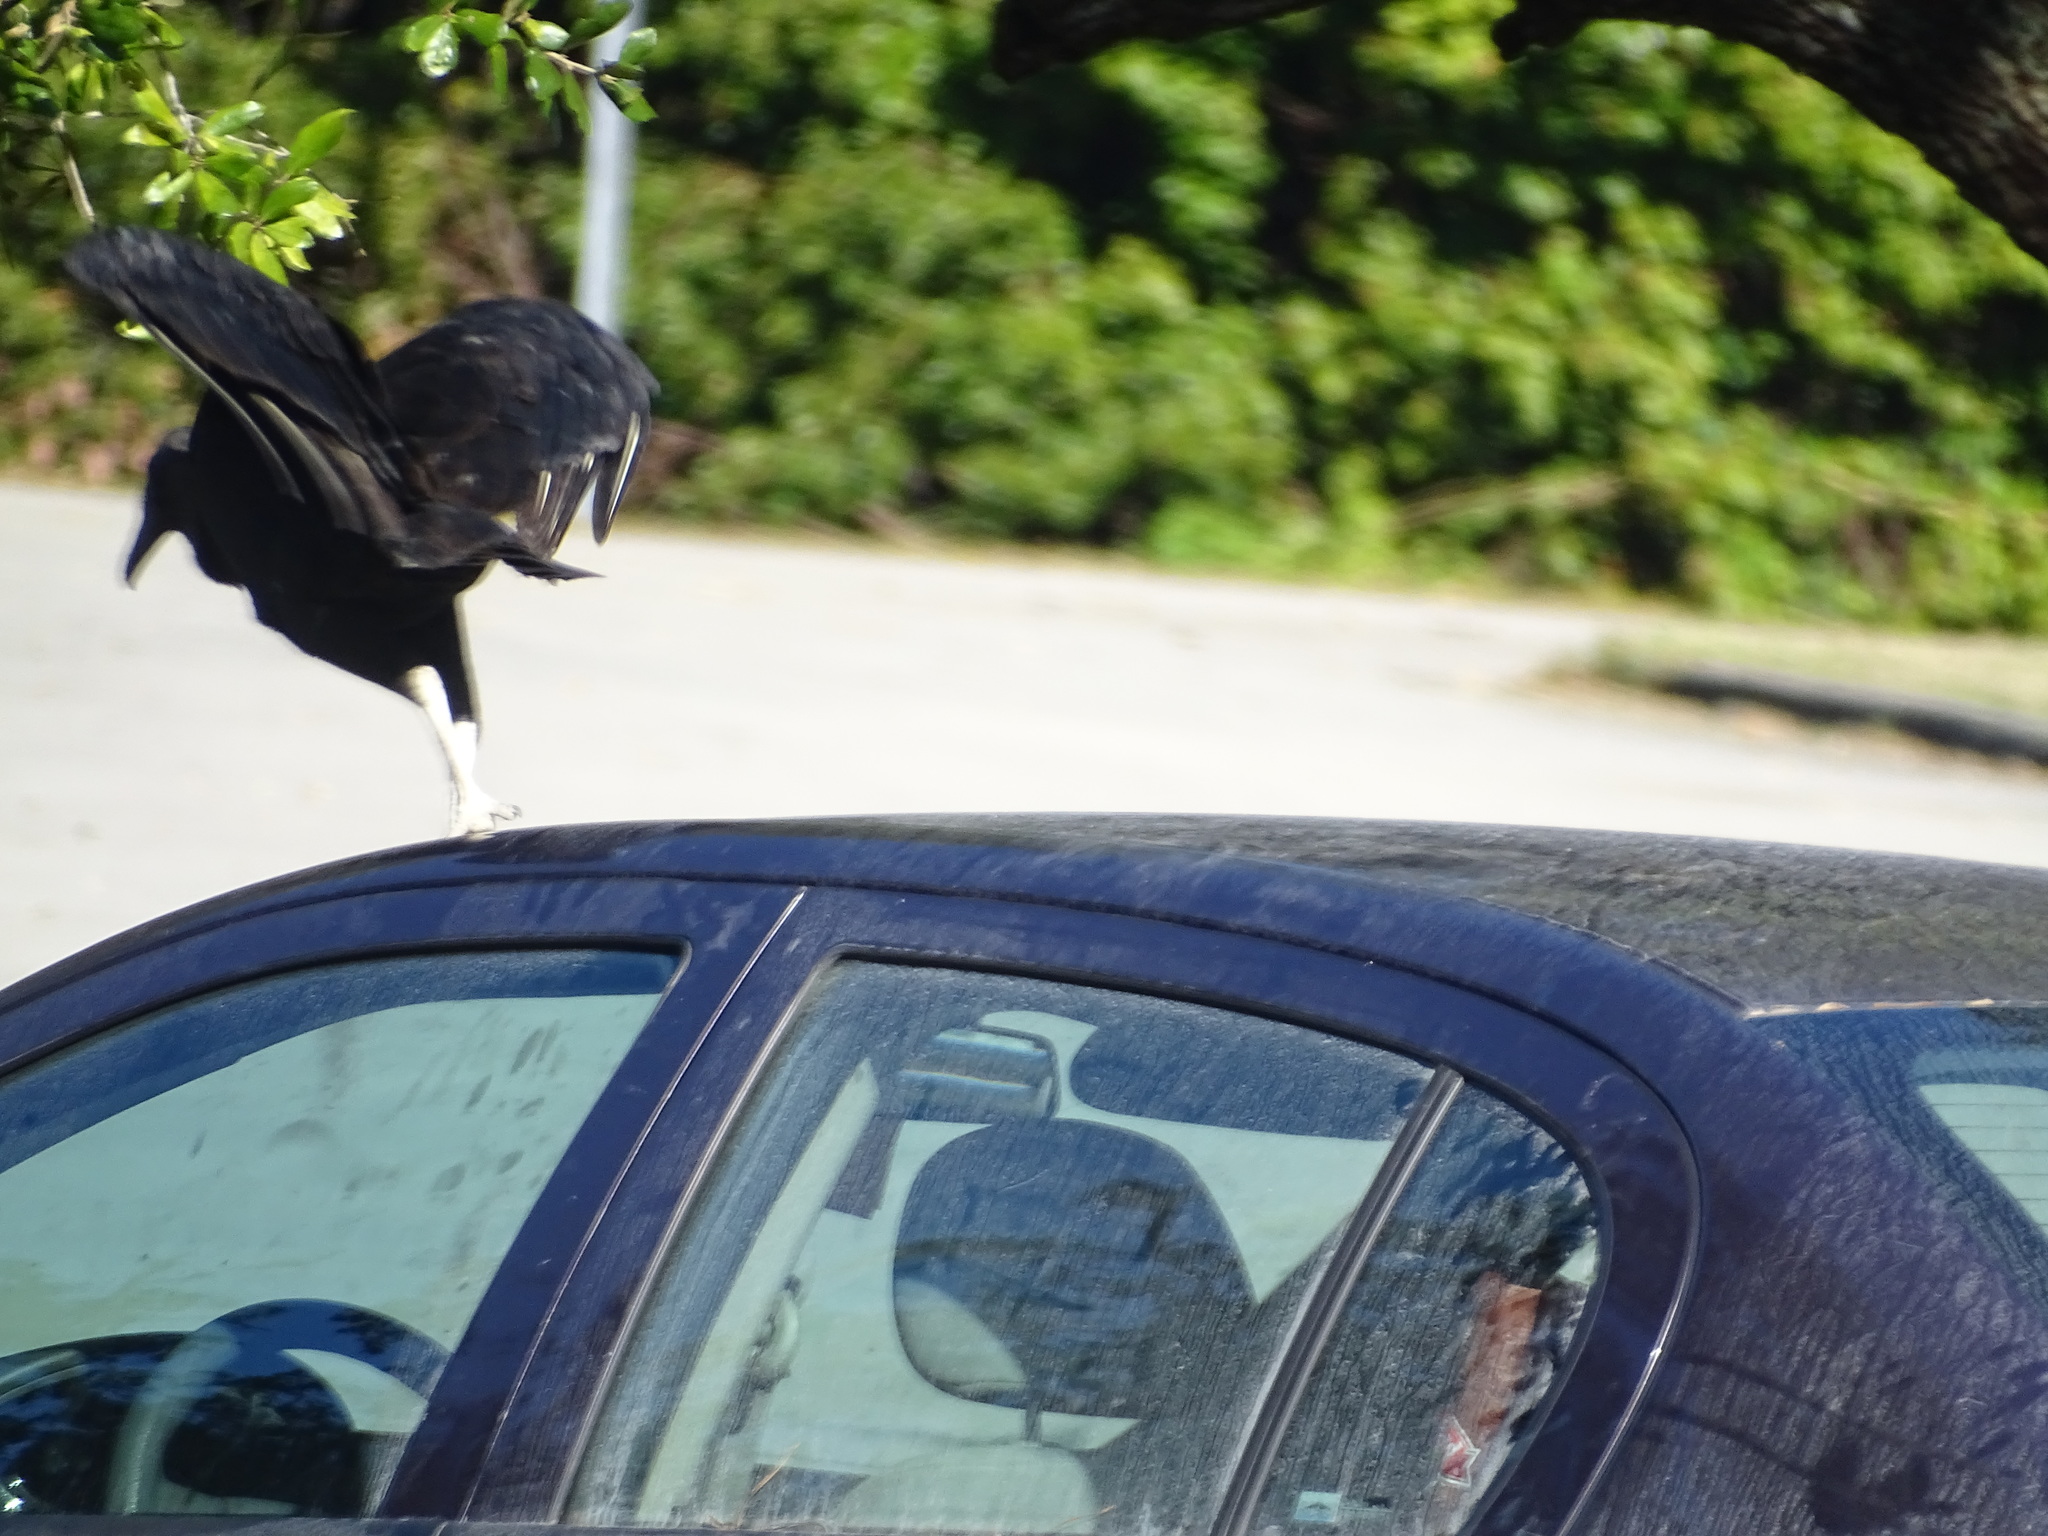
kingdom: Animalia
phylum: Chordata
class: Aves
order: Accipitriformes
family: Cathartidae
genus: Coragyps
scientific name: Coragyps atratus
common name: Black vulture
